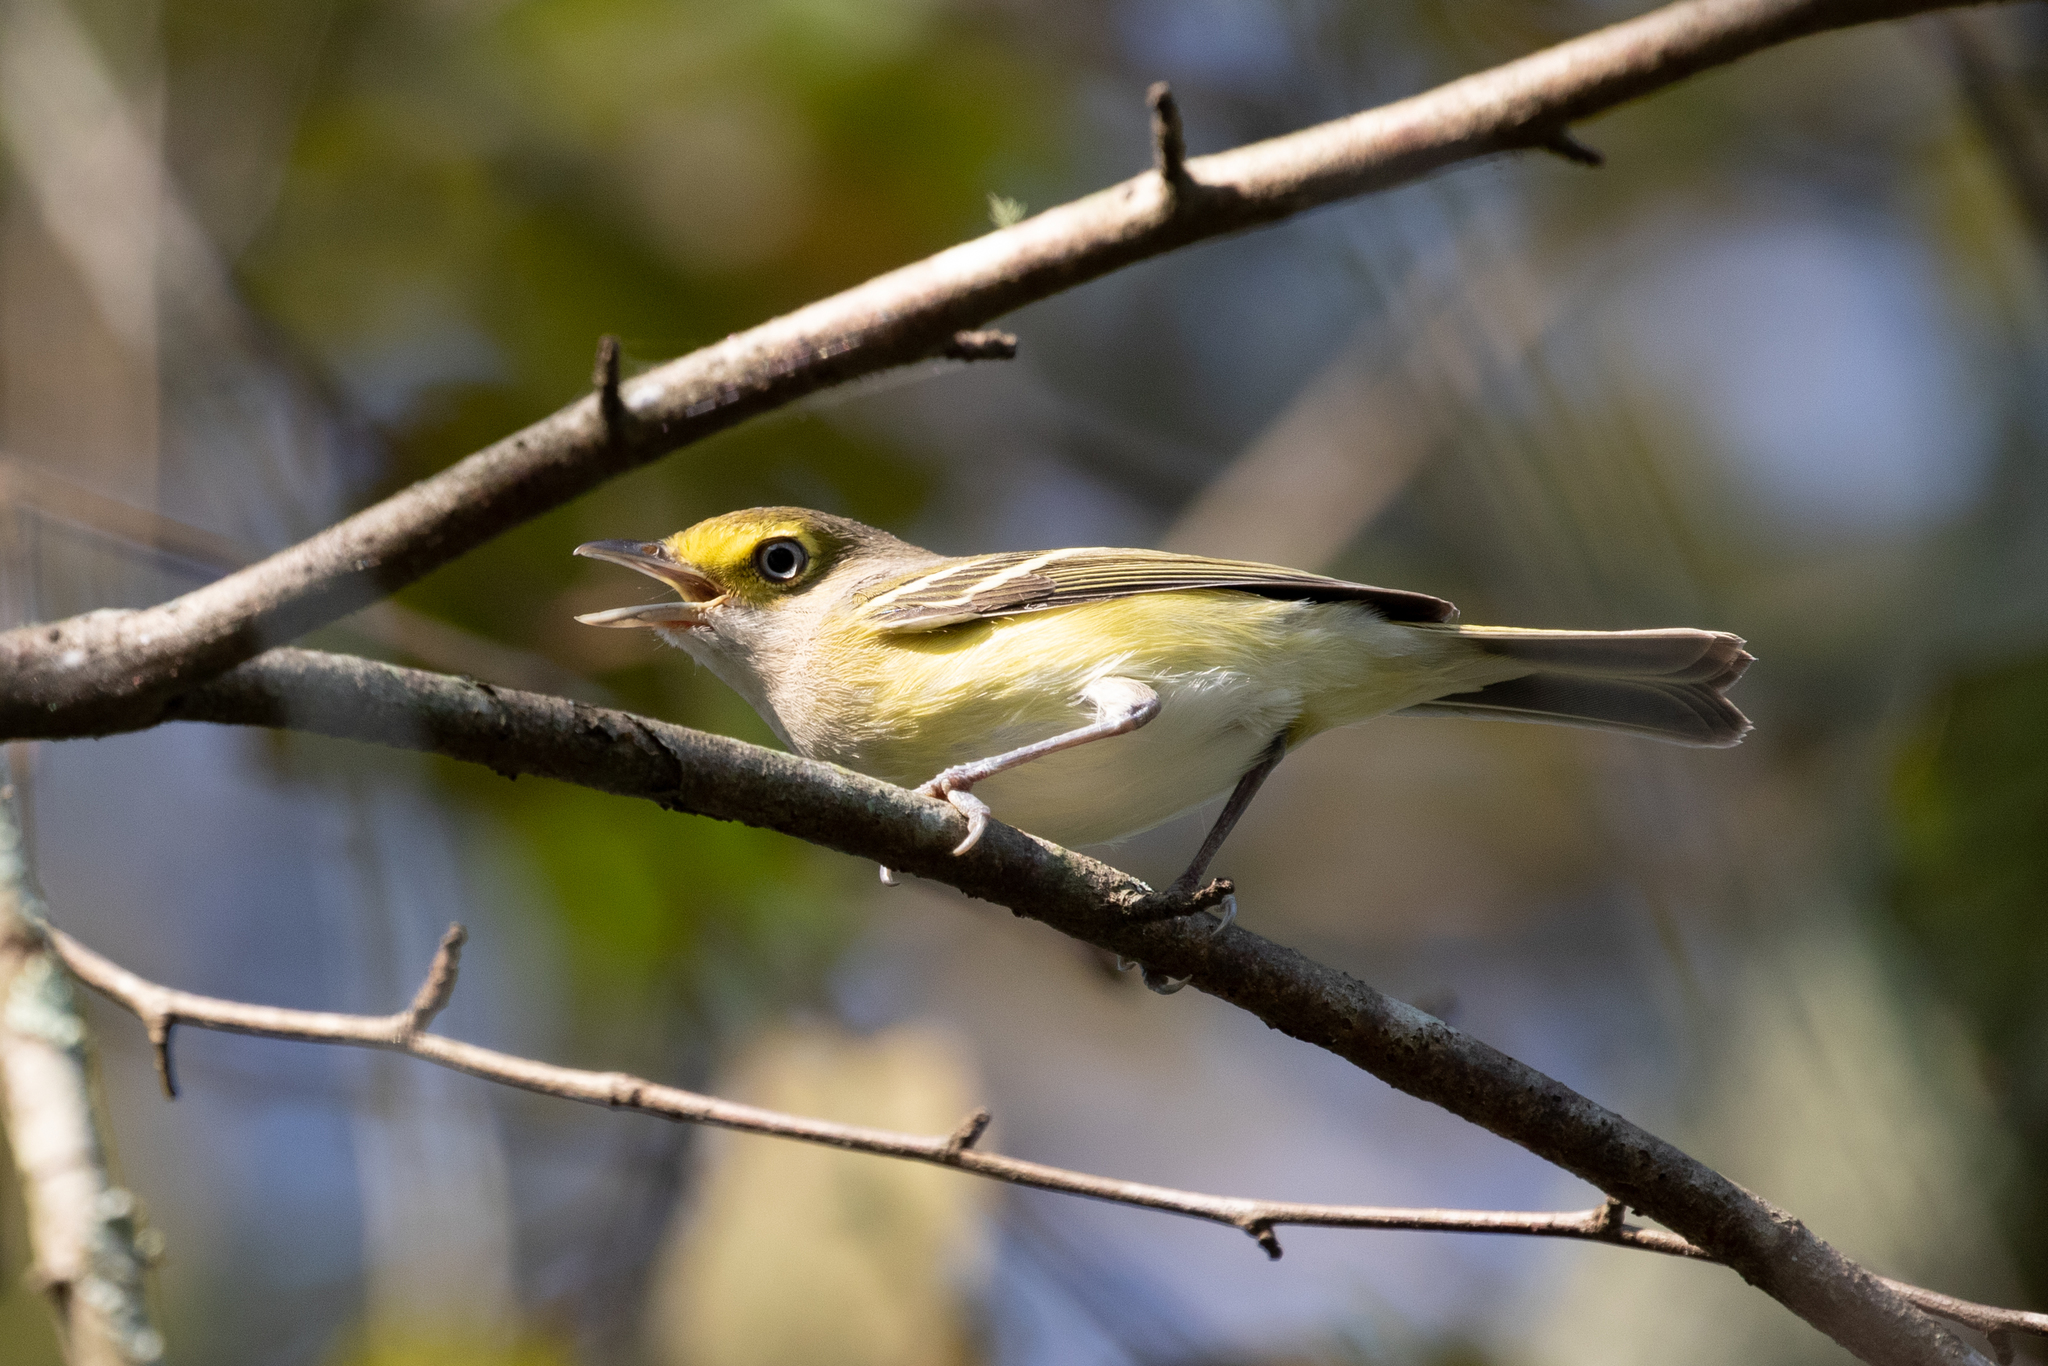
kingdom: Animalia
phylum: Chordata
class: Aves
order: Passeriformes
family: Vireonidae
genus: Vireo
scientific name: Vireo griseus
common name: White-eyed vireo
